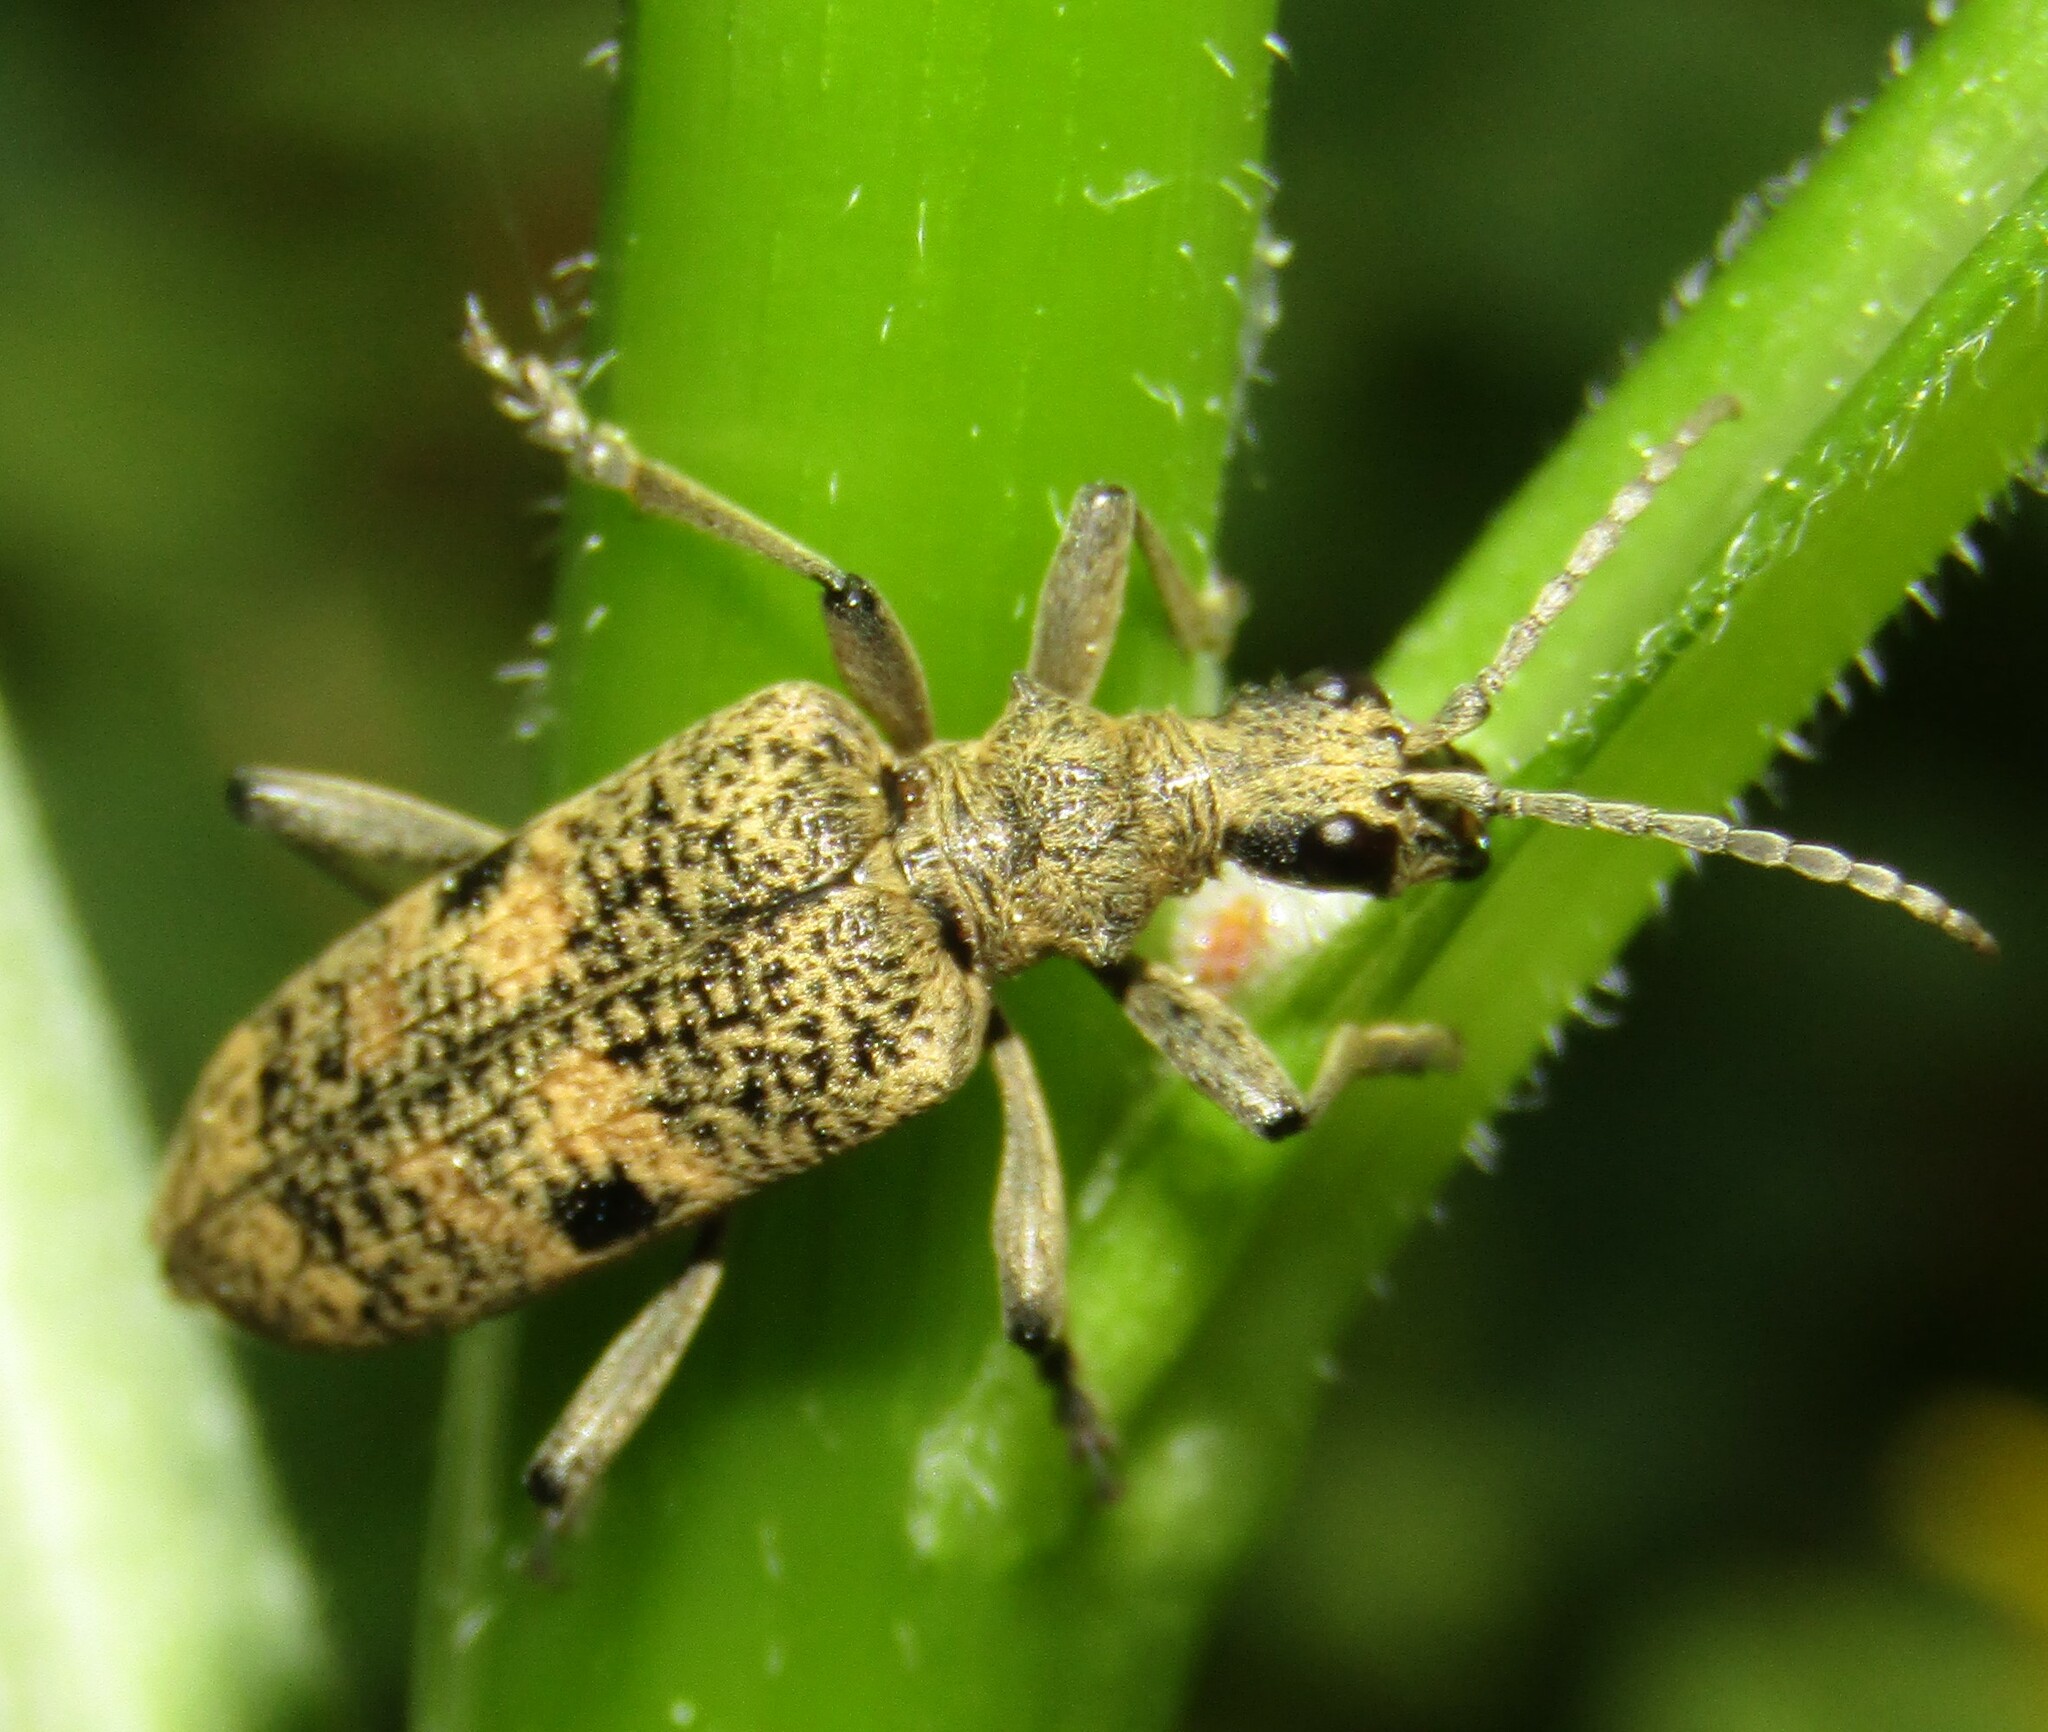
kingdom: Animalia
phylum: Arthropoda
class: Insecta
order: Coleoptera
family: Cerambycidae
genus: Rhagium
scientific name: Rhagium mordax
